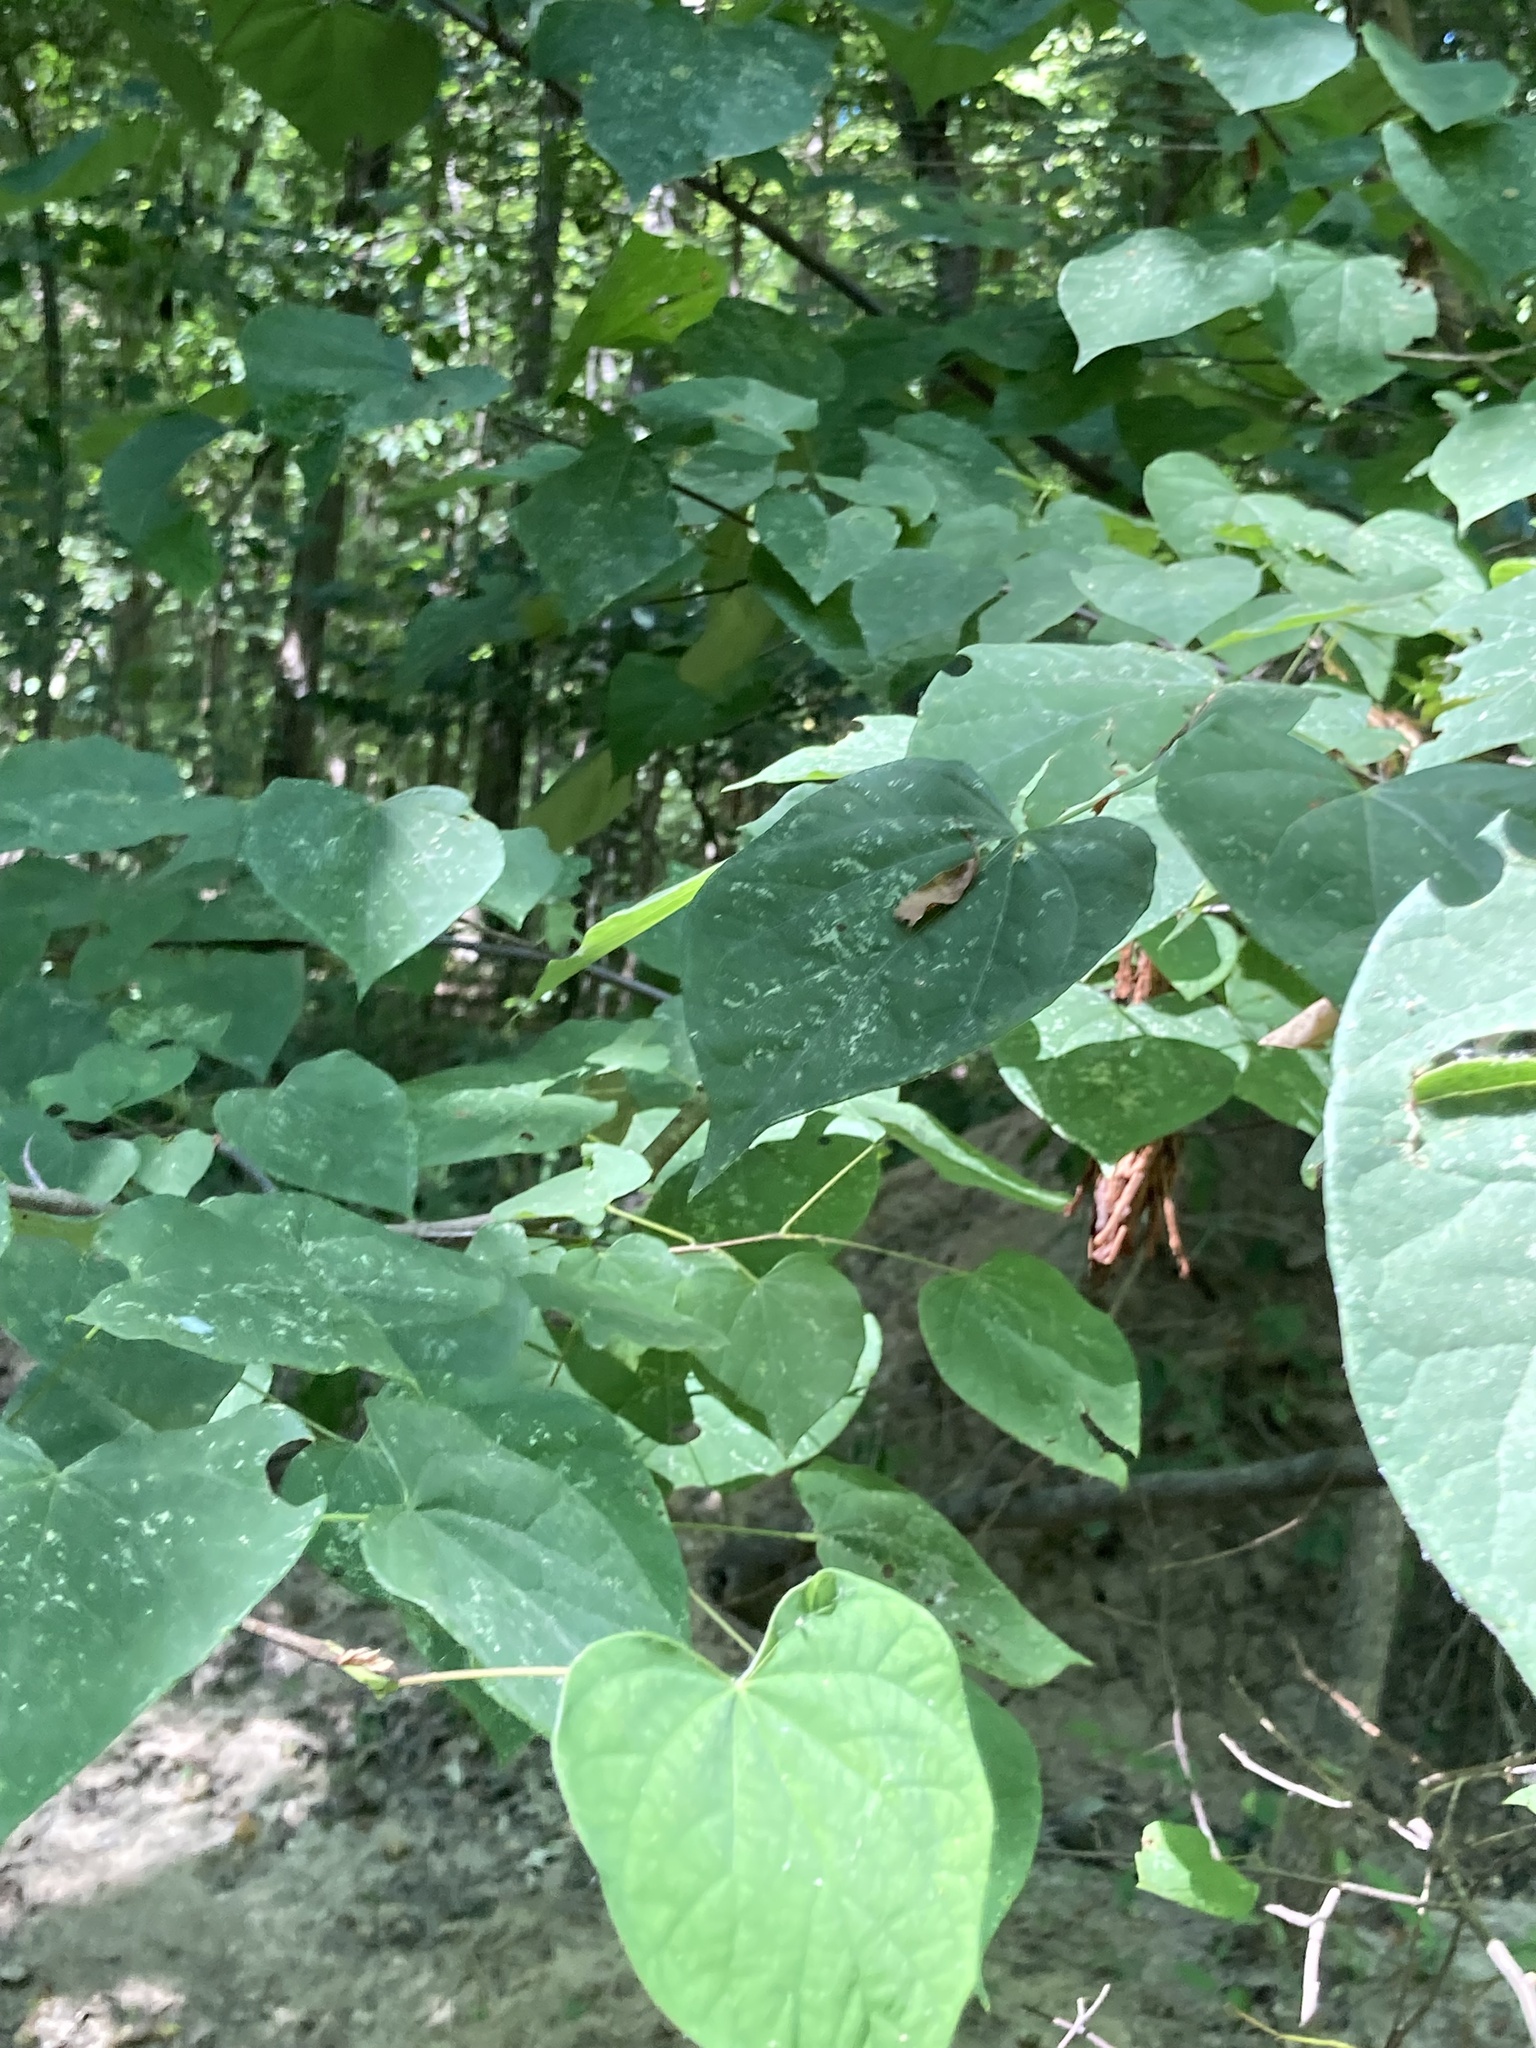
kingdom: Plantae
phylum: Tracheophyta
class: Magnoliopsida
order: Fabales
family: Fabaceae
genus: Cercis
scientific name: Cercis canadensis
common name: Eastern redbud
